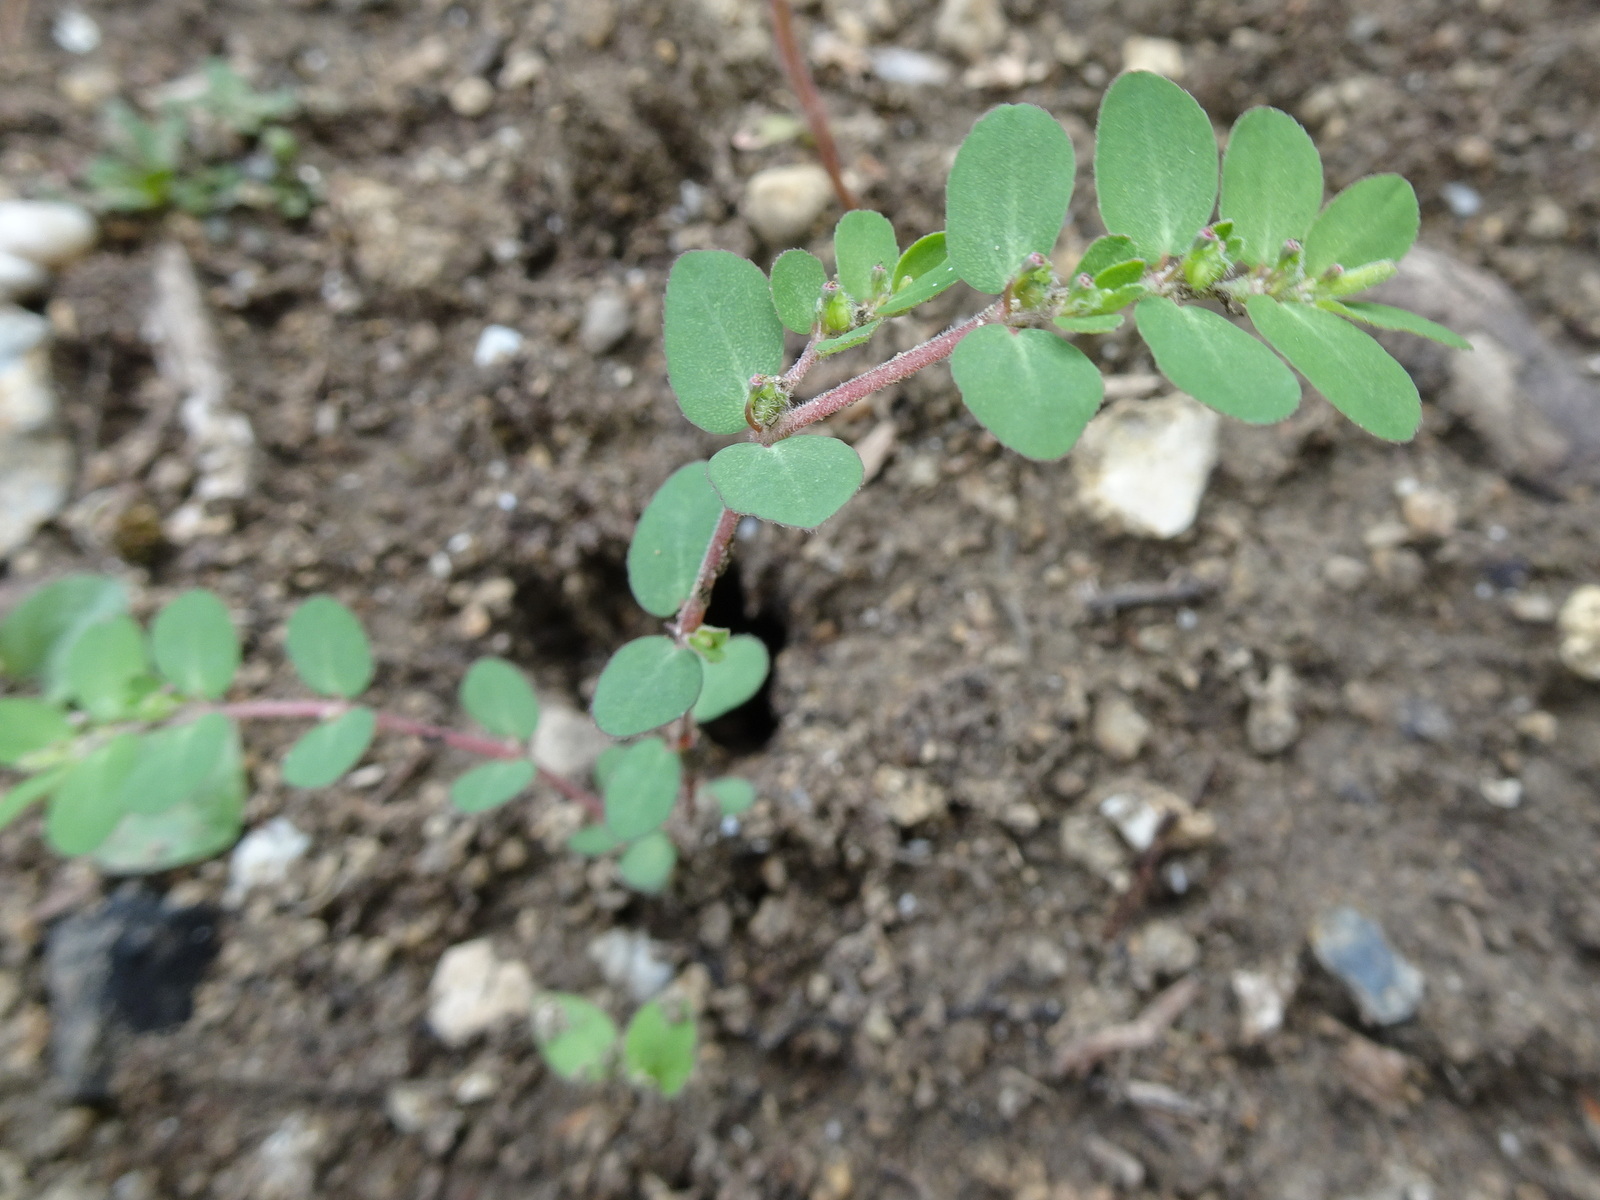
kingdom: Plantae
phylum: Tracheophyta
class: Magnoliopsida
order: Malpighiales
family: Euphorbiaceae
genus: Euphorbia
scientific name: Euphorbia prostrata
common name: Prostrate sandmat
